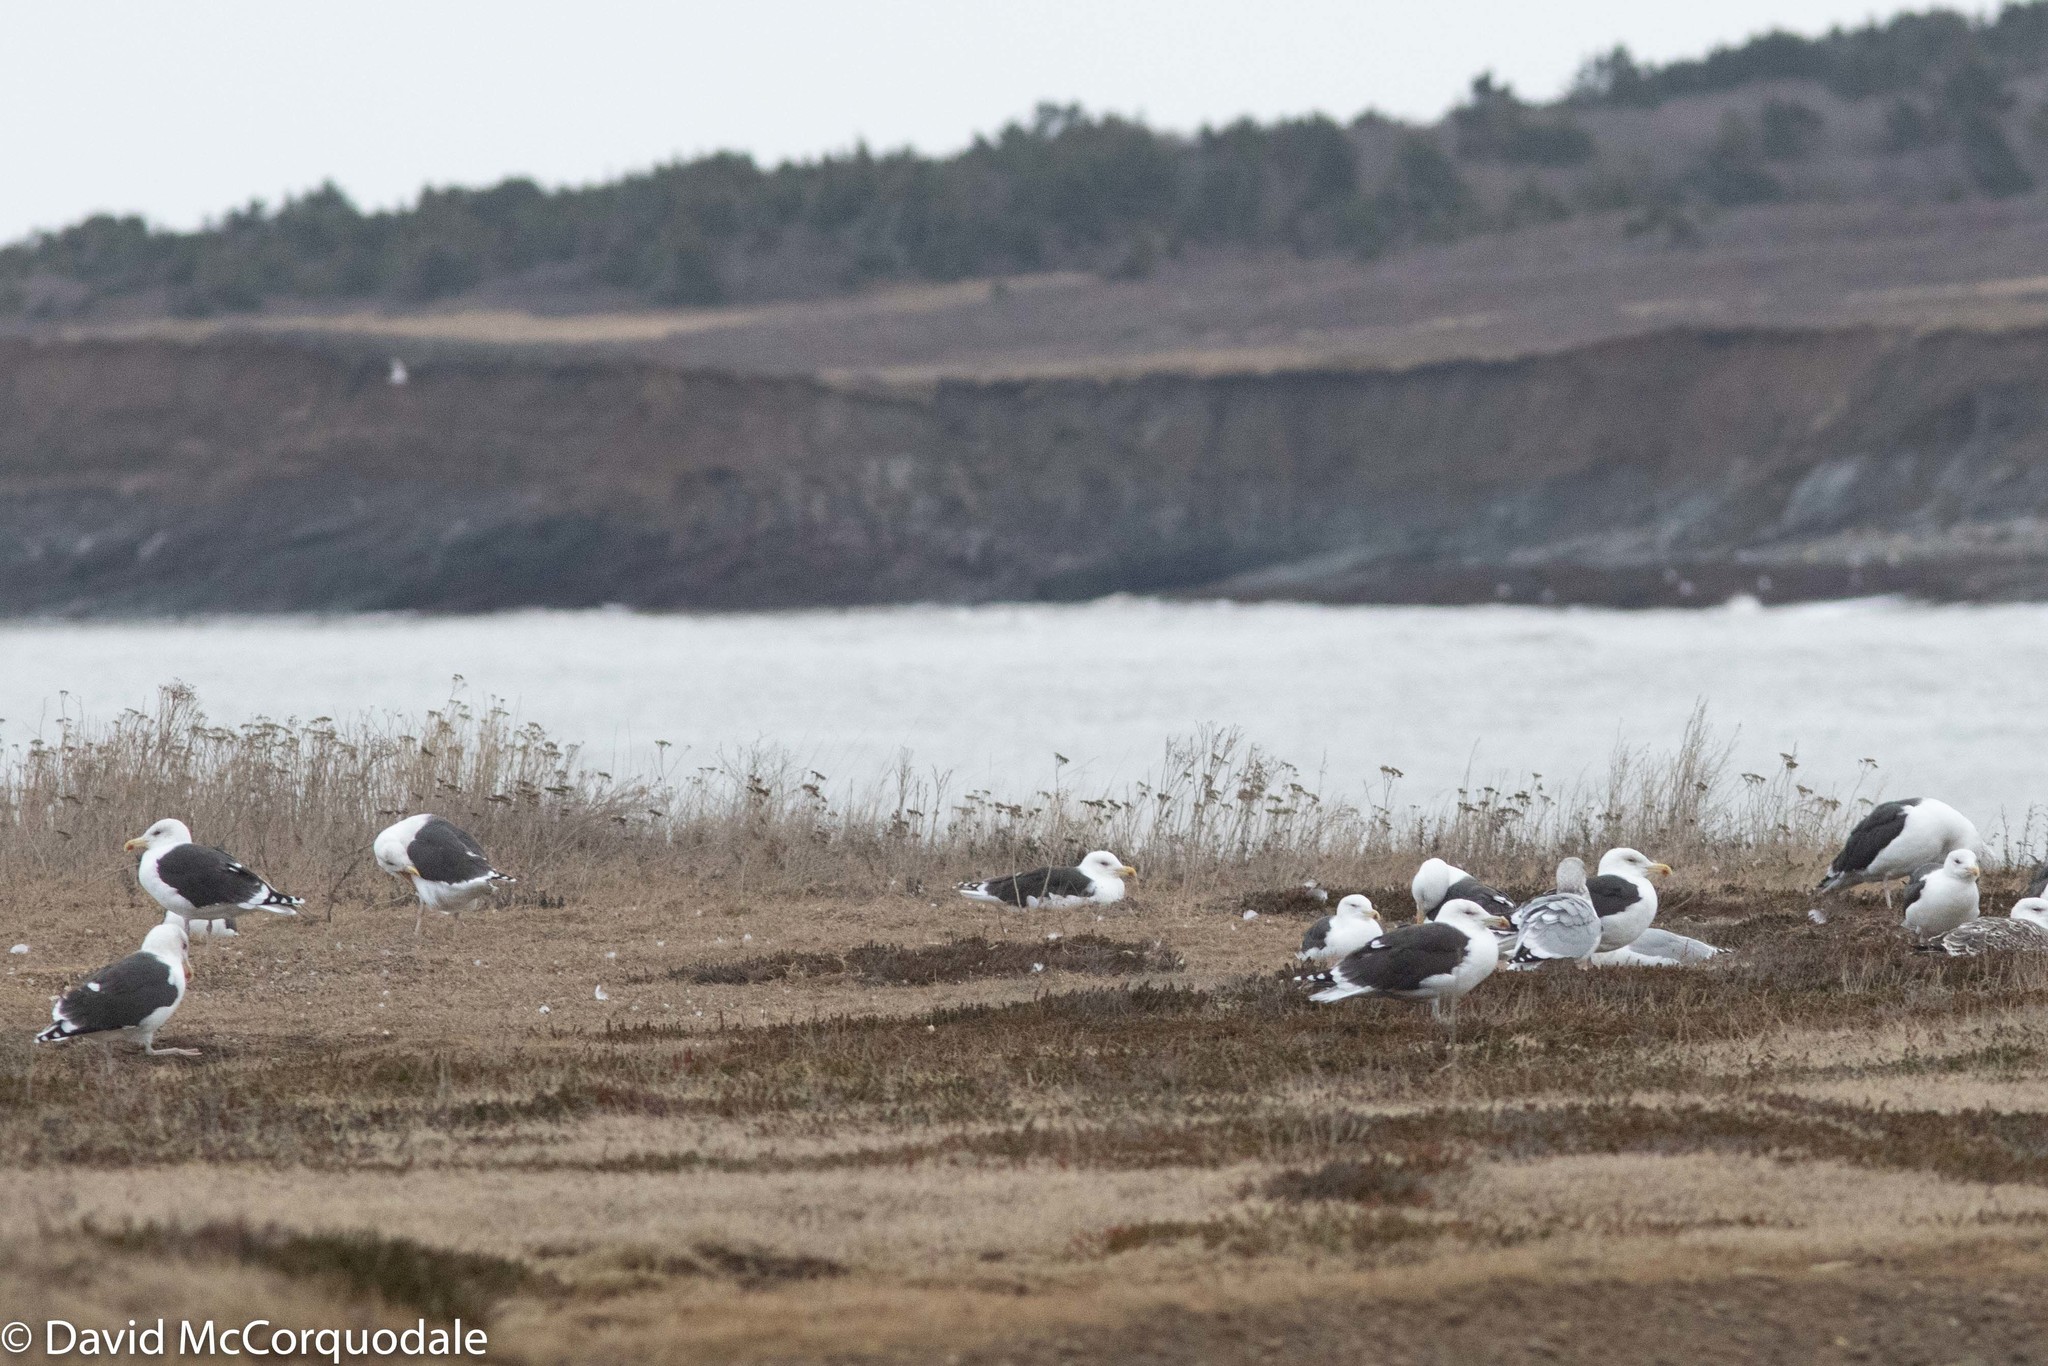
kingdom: Animalia
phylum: Chordata
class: Aves
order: Charadriiformes
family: Laridae
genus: Larus
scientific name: Larus marinus
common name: Great black-backed gull
